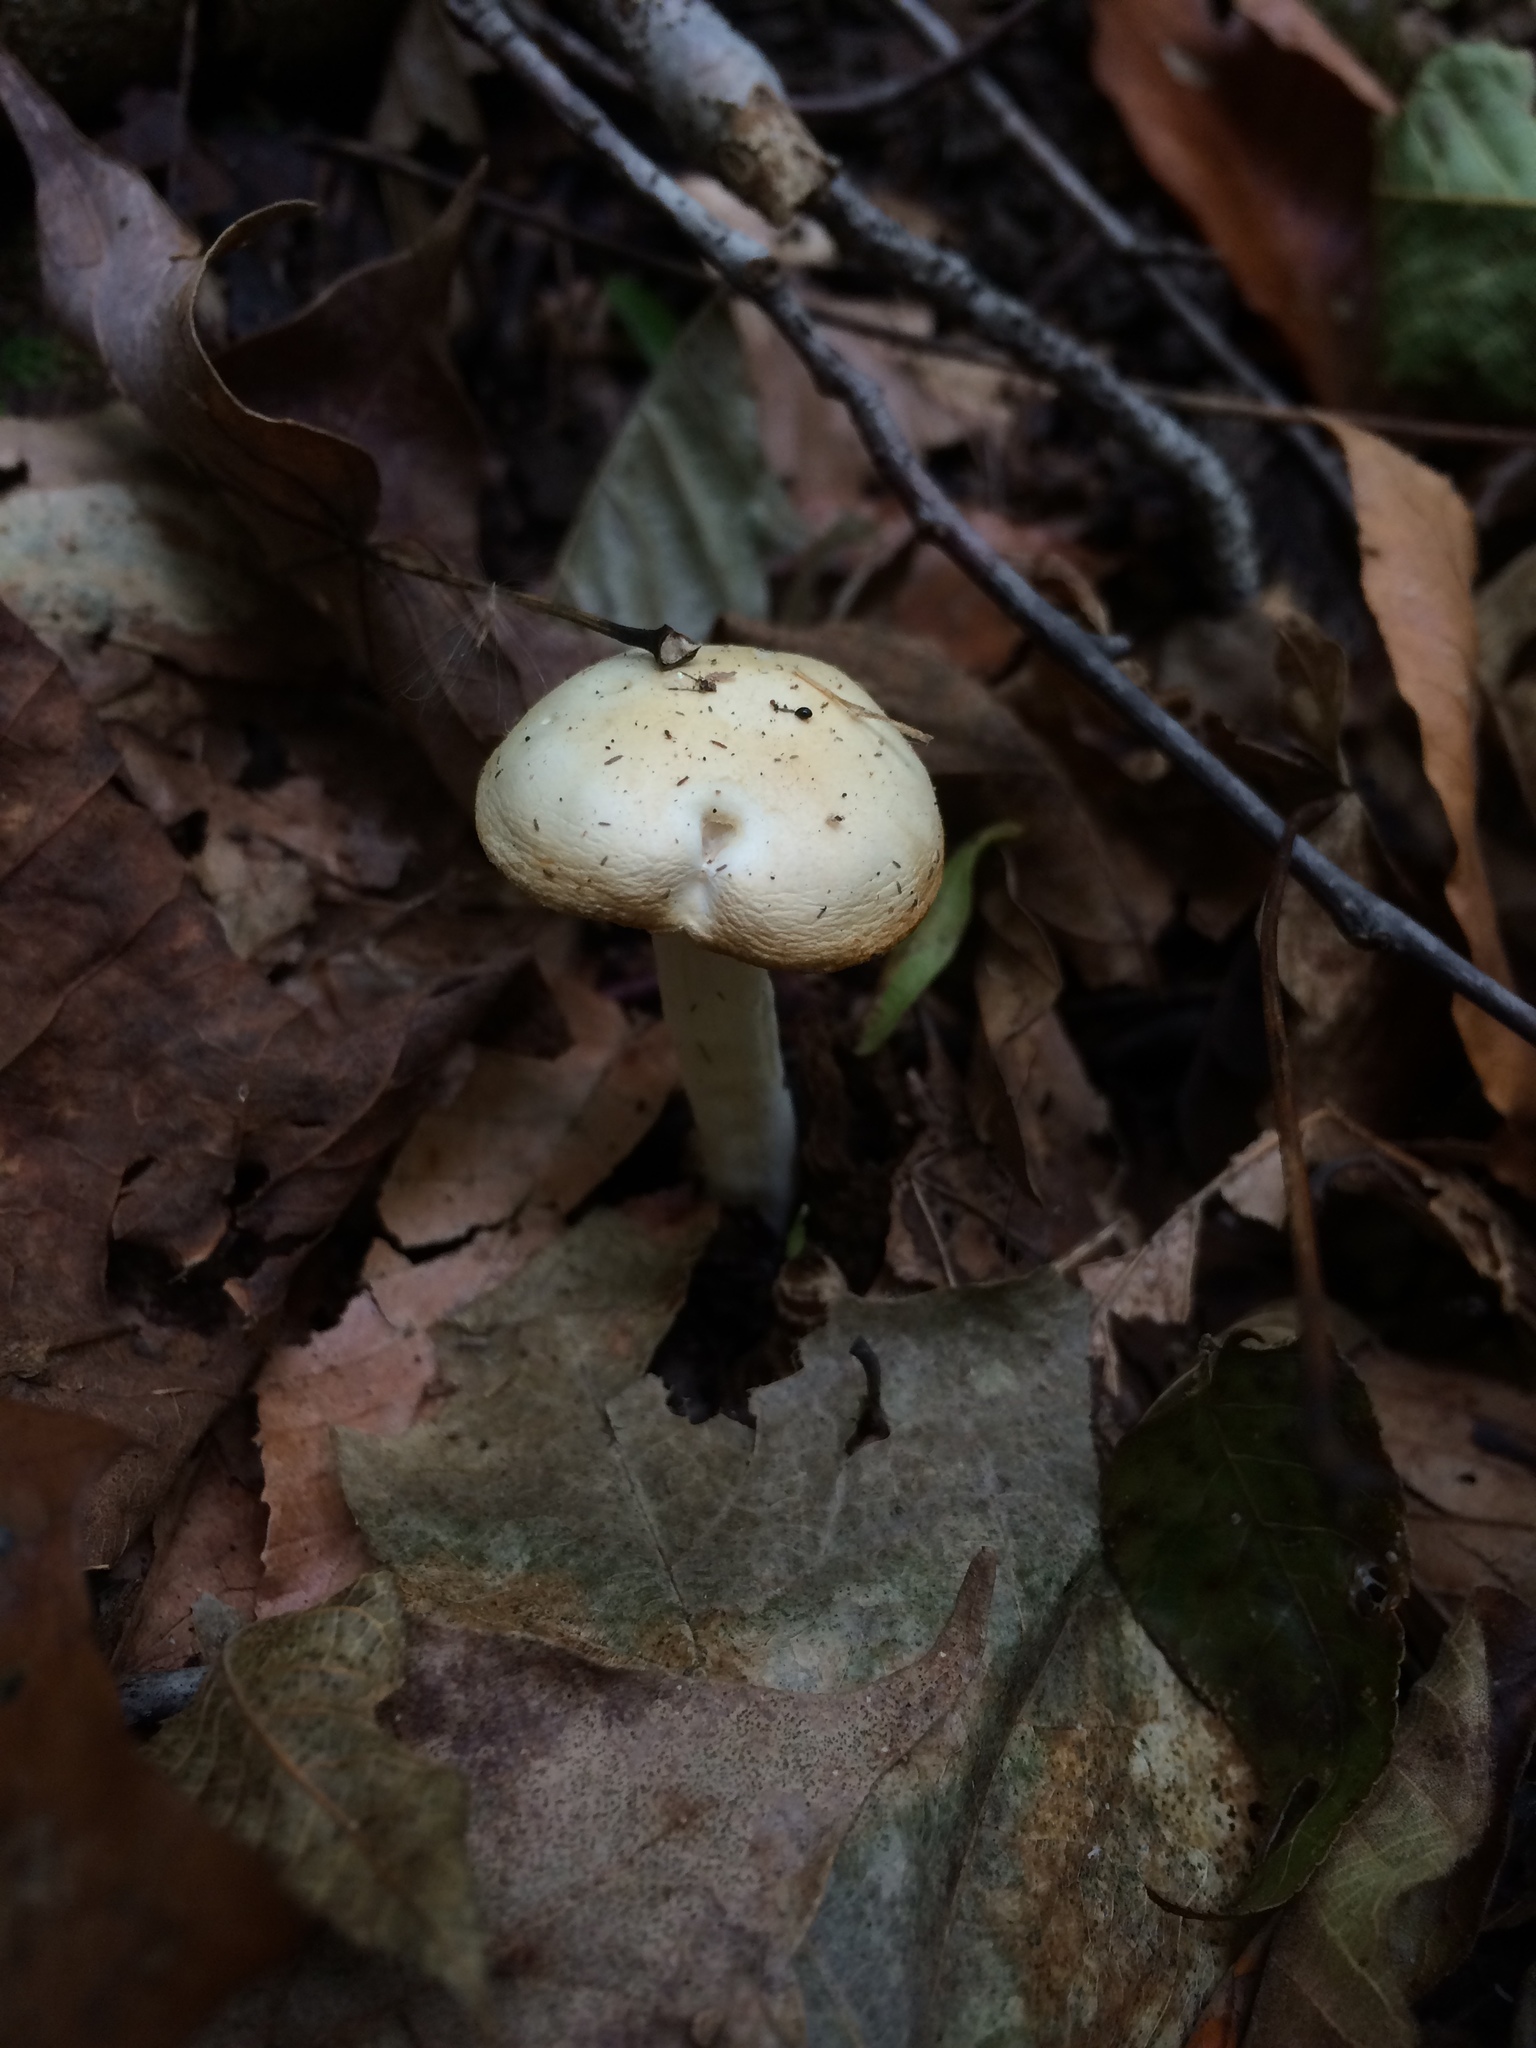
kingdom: Fungi
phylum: Basidiomycota
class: Agaricomycetes
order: Agaricales
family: Hygrophoraceae
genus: Hygrophorus
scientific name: Hygrophorus discoxanthus
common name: Yellowing woodwax
